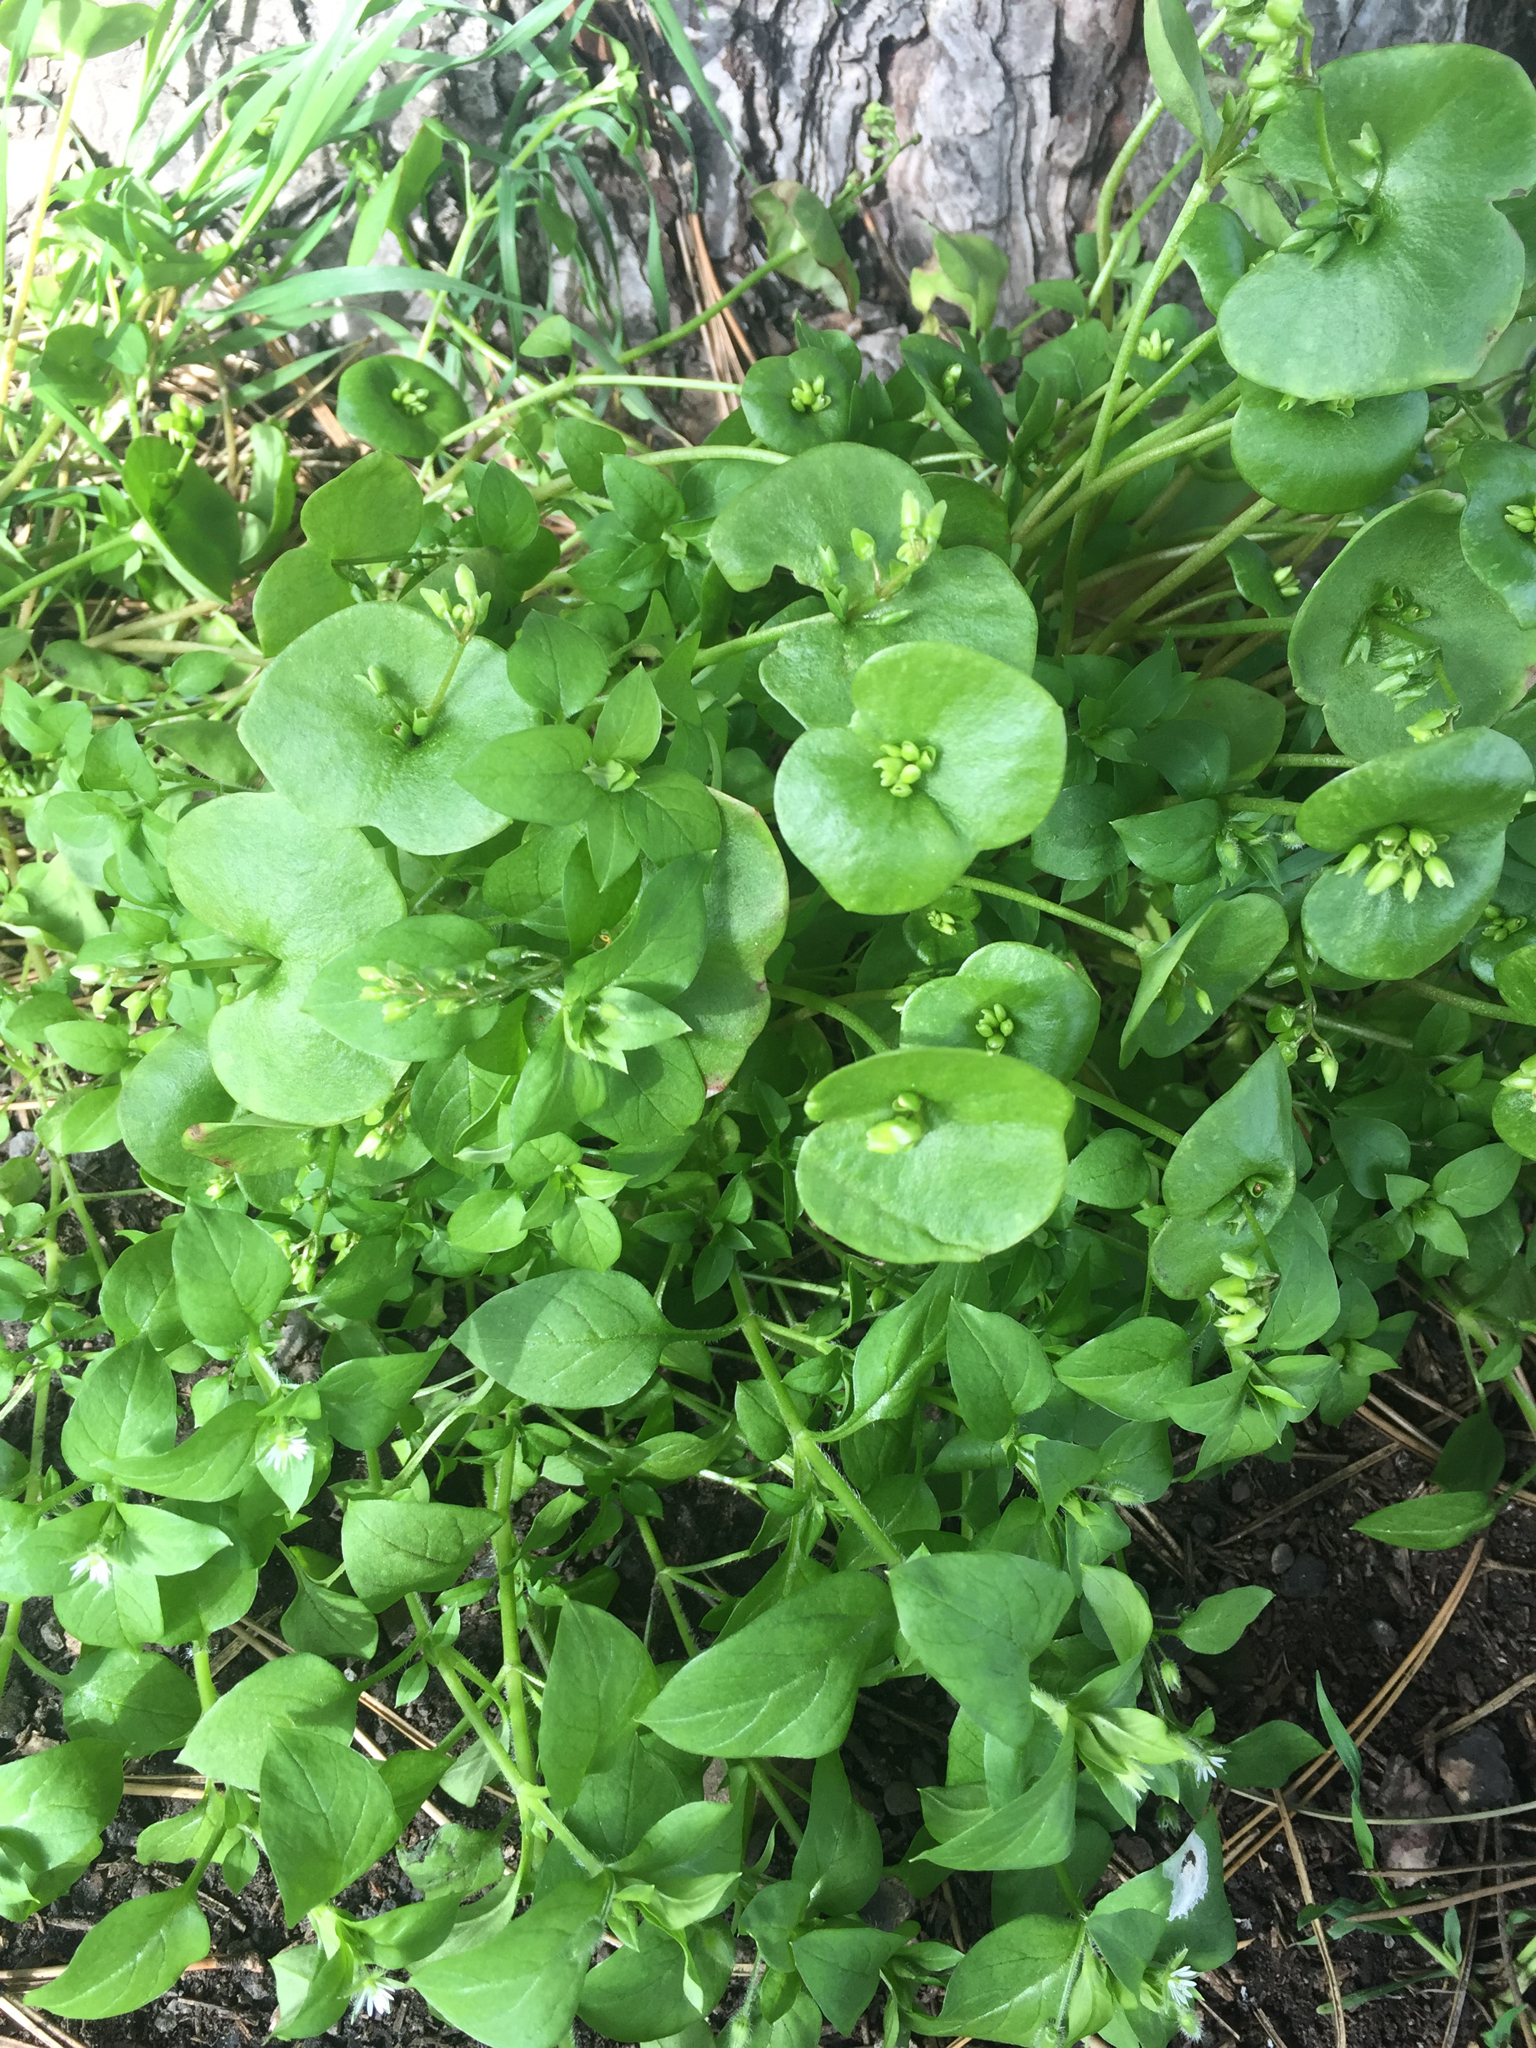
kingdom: Plantae
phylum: Tracheophyta
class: Magnoliopsida
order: Caryophyllales
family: Montiaceae
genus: Claytonia
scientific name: Claytonia perfoliata
